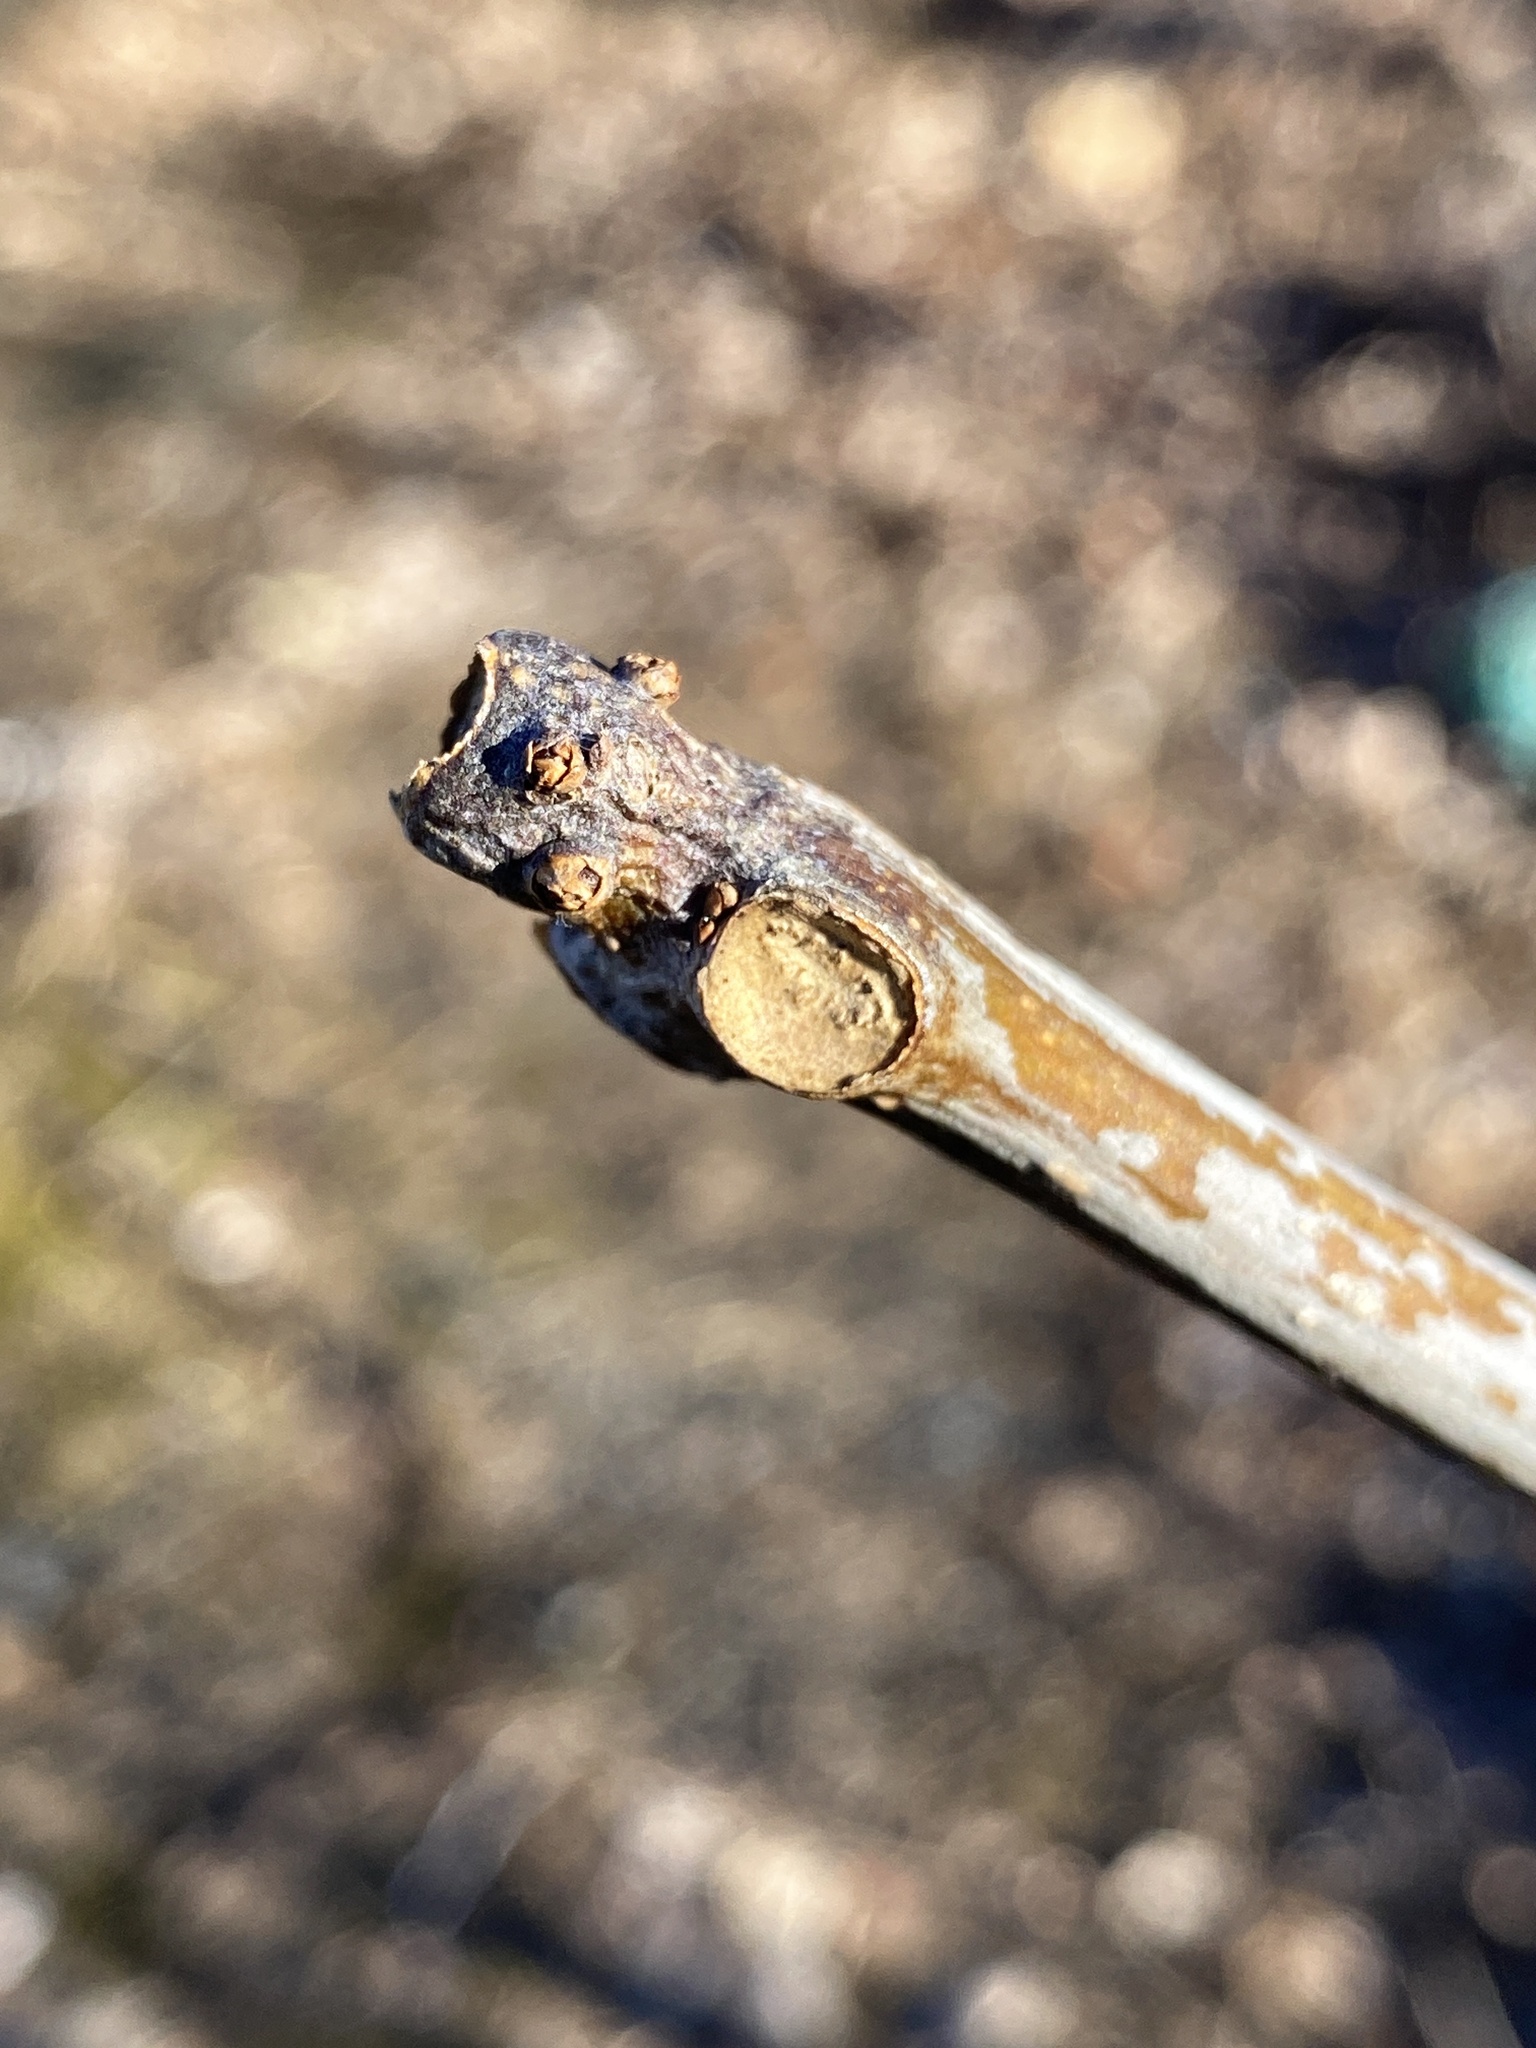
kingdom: Plantae
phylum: Tracheophyta
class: Magnoliopsida
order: Lamiales
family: Bignoniaceae
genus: Catalpa
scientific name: Catalpa
